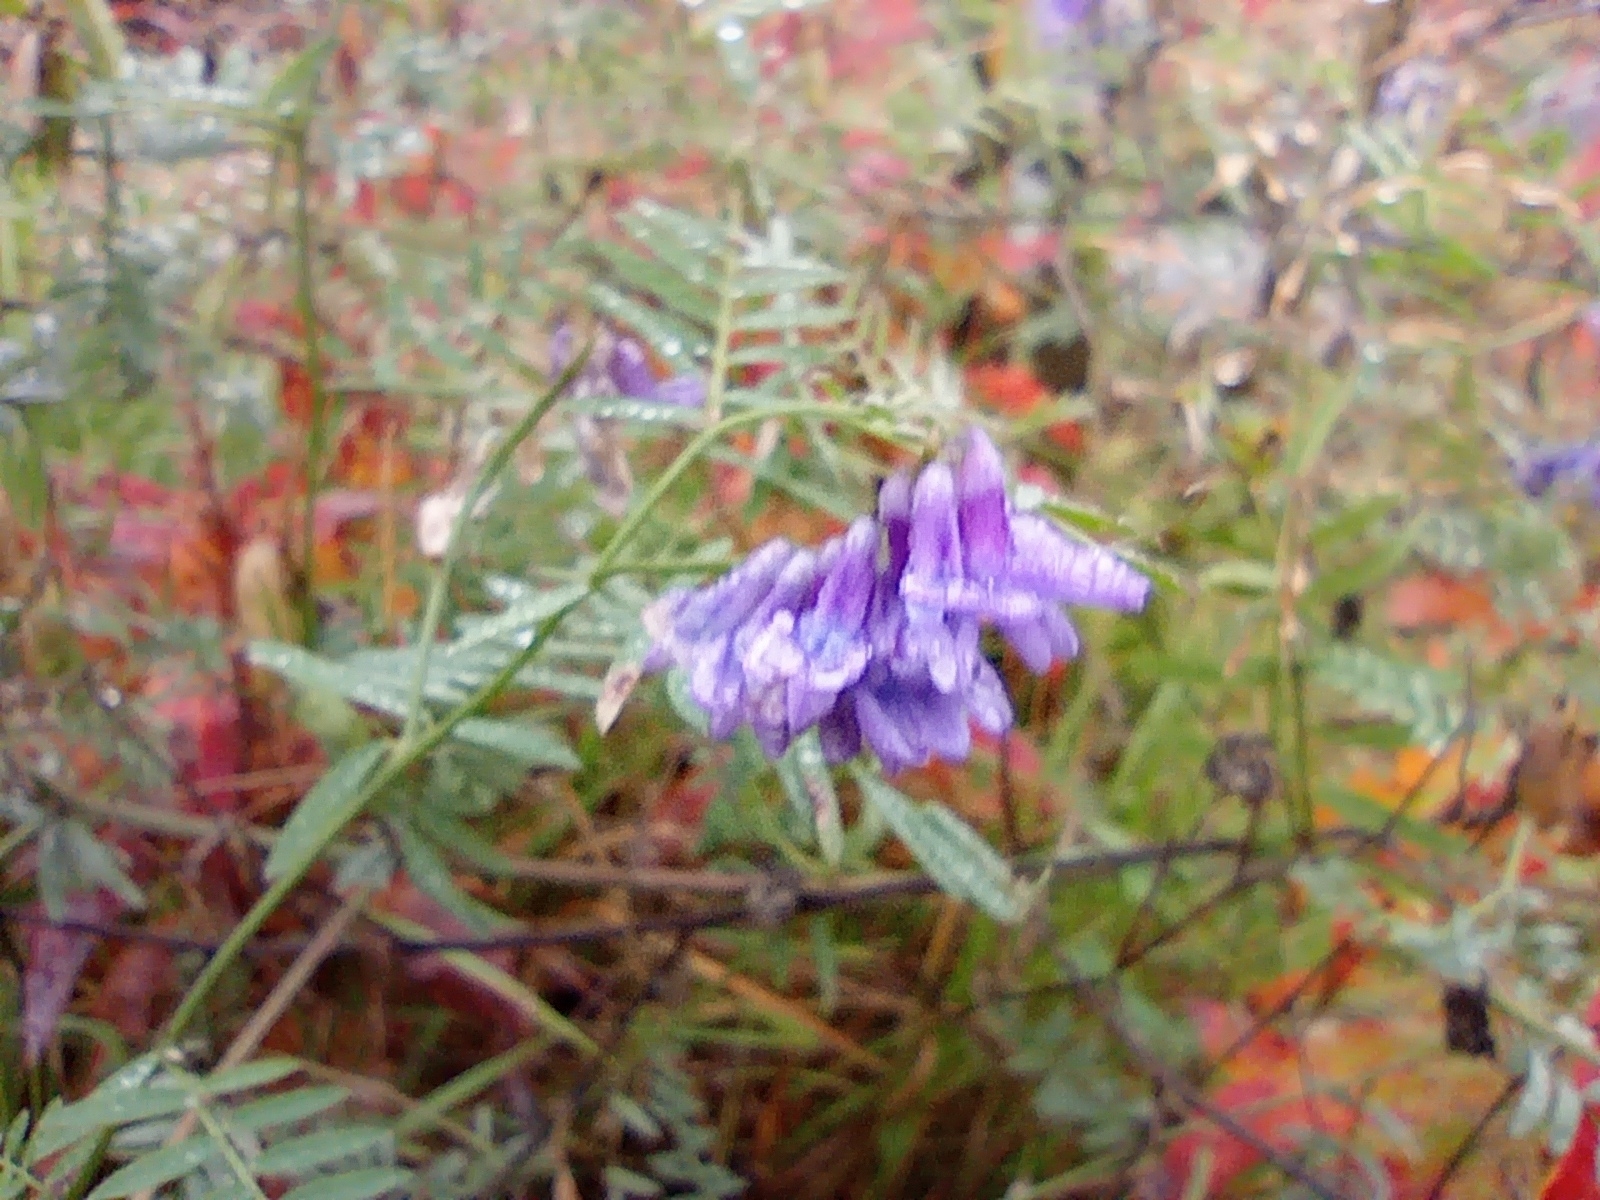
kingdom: Plantae
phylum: Tracheophyta
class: Magnoliopsida
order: Fabales
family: Fabaceae
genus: Vicia
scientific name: Vicia cracca
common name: Bird vetch
